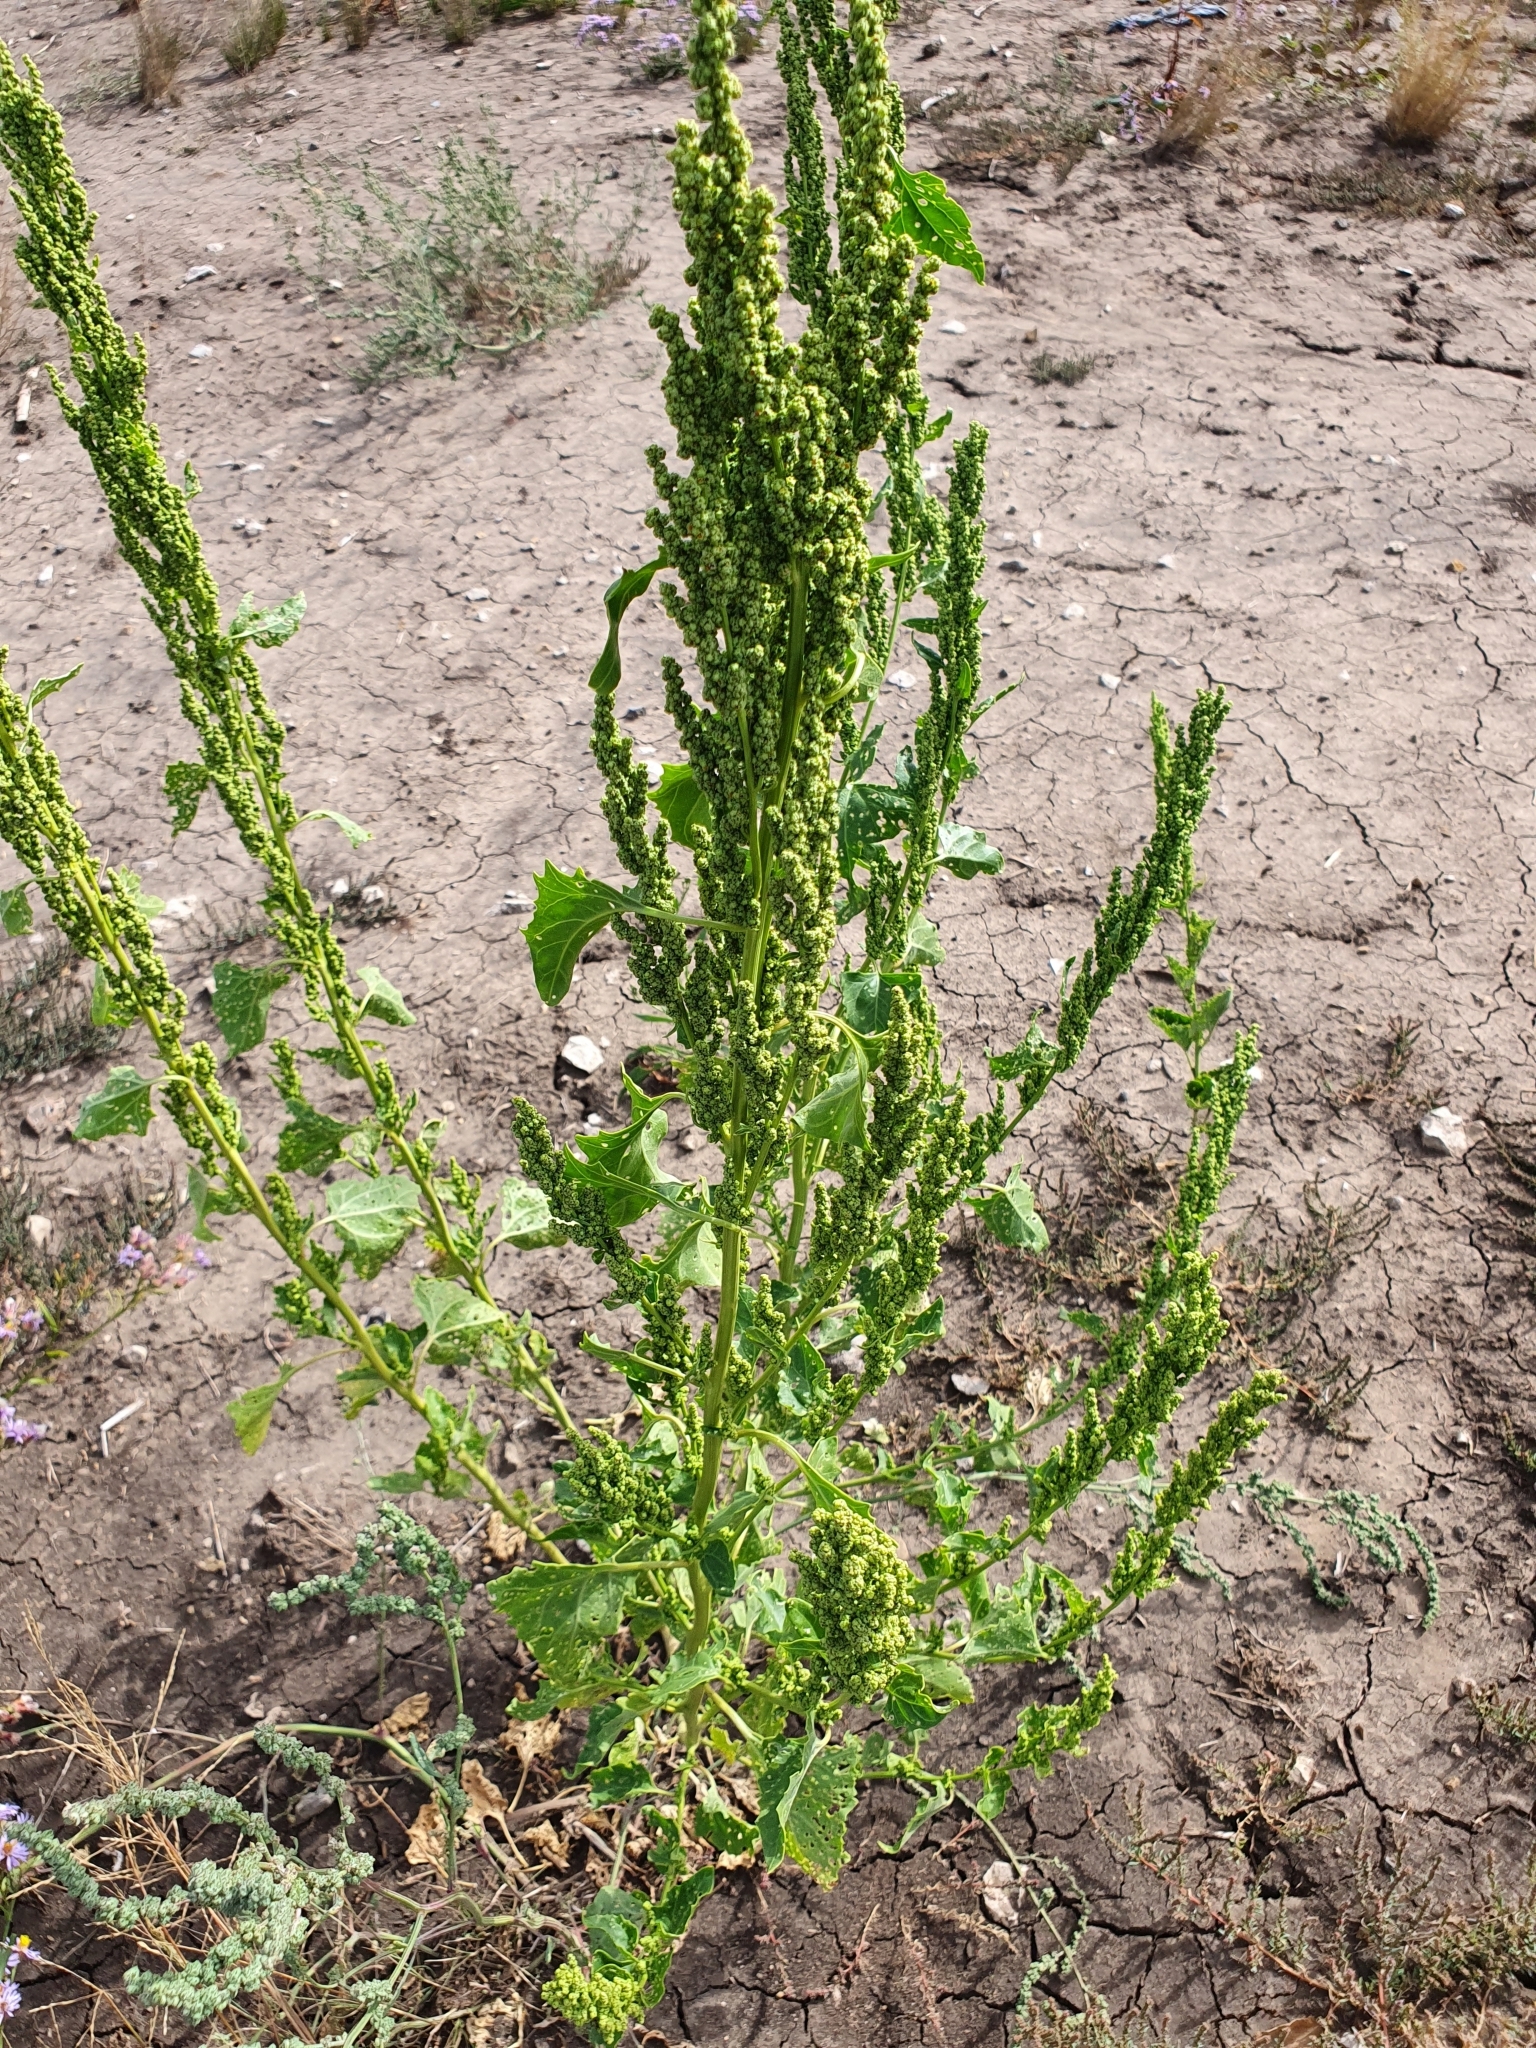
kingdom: Plantae
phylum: Tracheophyta
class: Magnoliopsida
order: Caryophyllales
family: Amaranthaceae
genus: Oxybasis
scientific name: Oxybasis urbica
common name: City goosefoot
